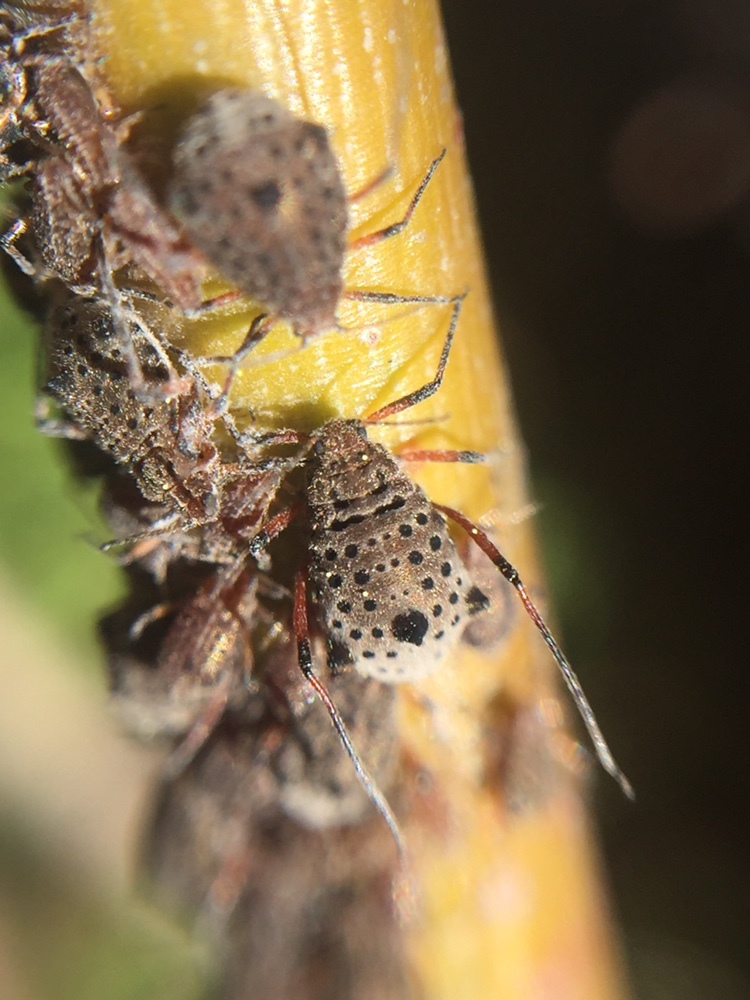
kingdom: Animalia
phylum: Arthropoda
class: Insecta
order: Hemiptera
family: Aphididae
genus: Tuberolachnus
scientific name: Tuberolachnus salignus
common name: Giant willow aphid
